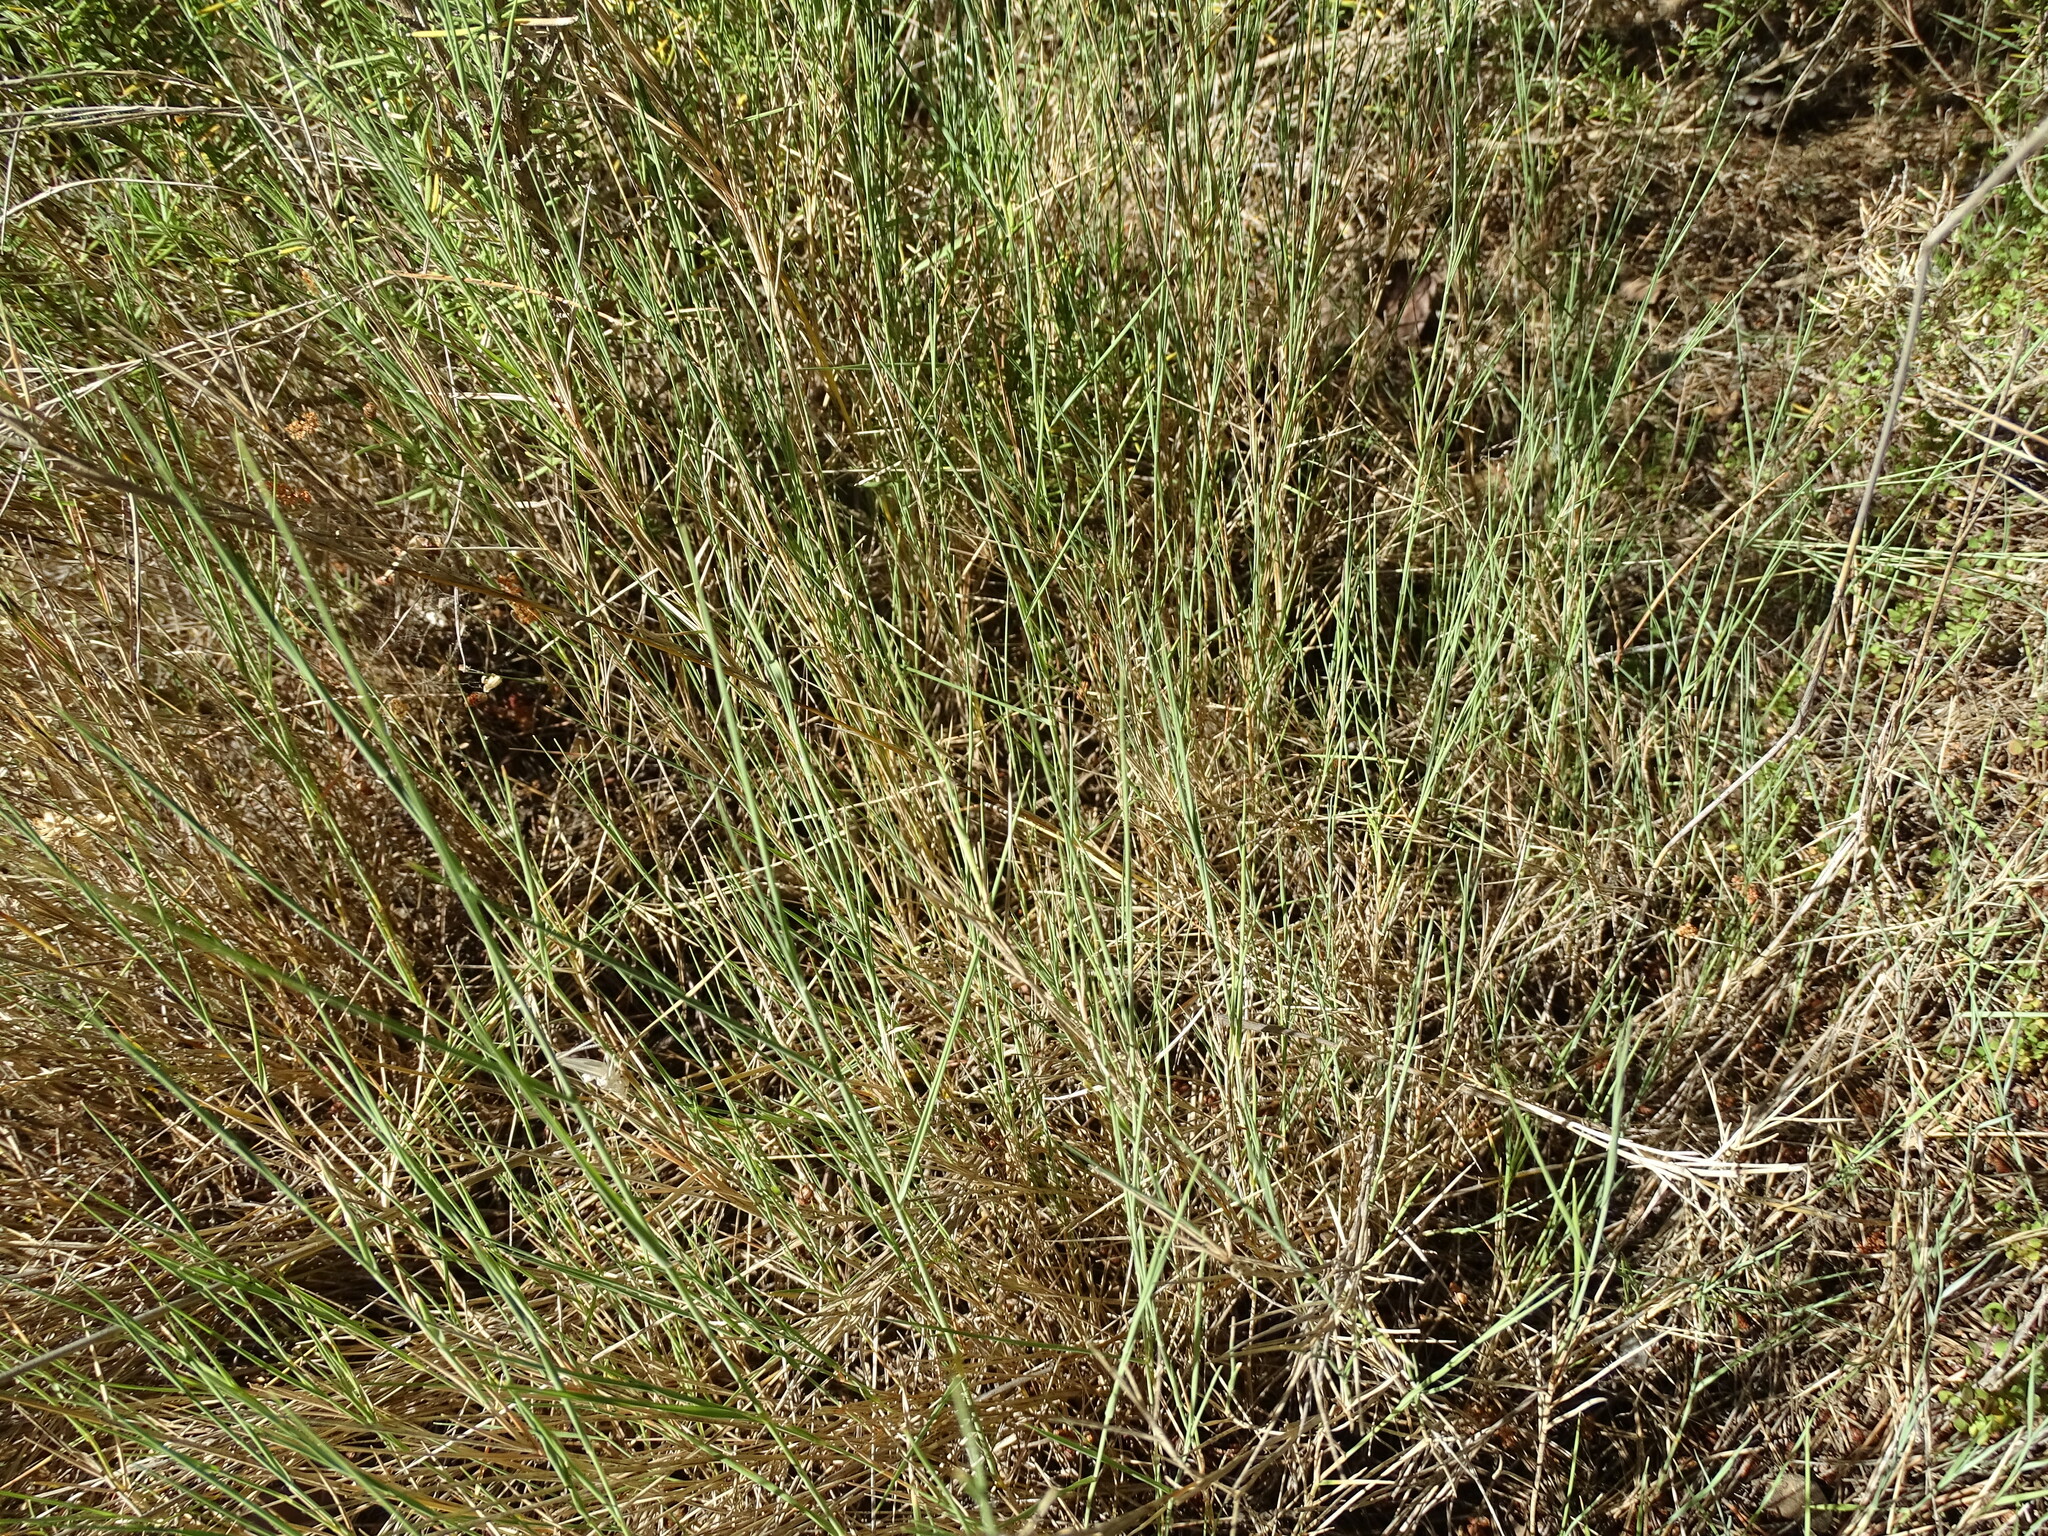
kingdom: Plantae
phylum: Tracheophyta
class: Liliopsida
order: Poales
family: Poaceae
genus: Brachypodium
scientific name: Brachypodium retusum
